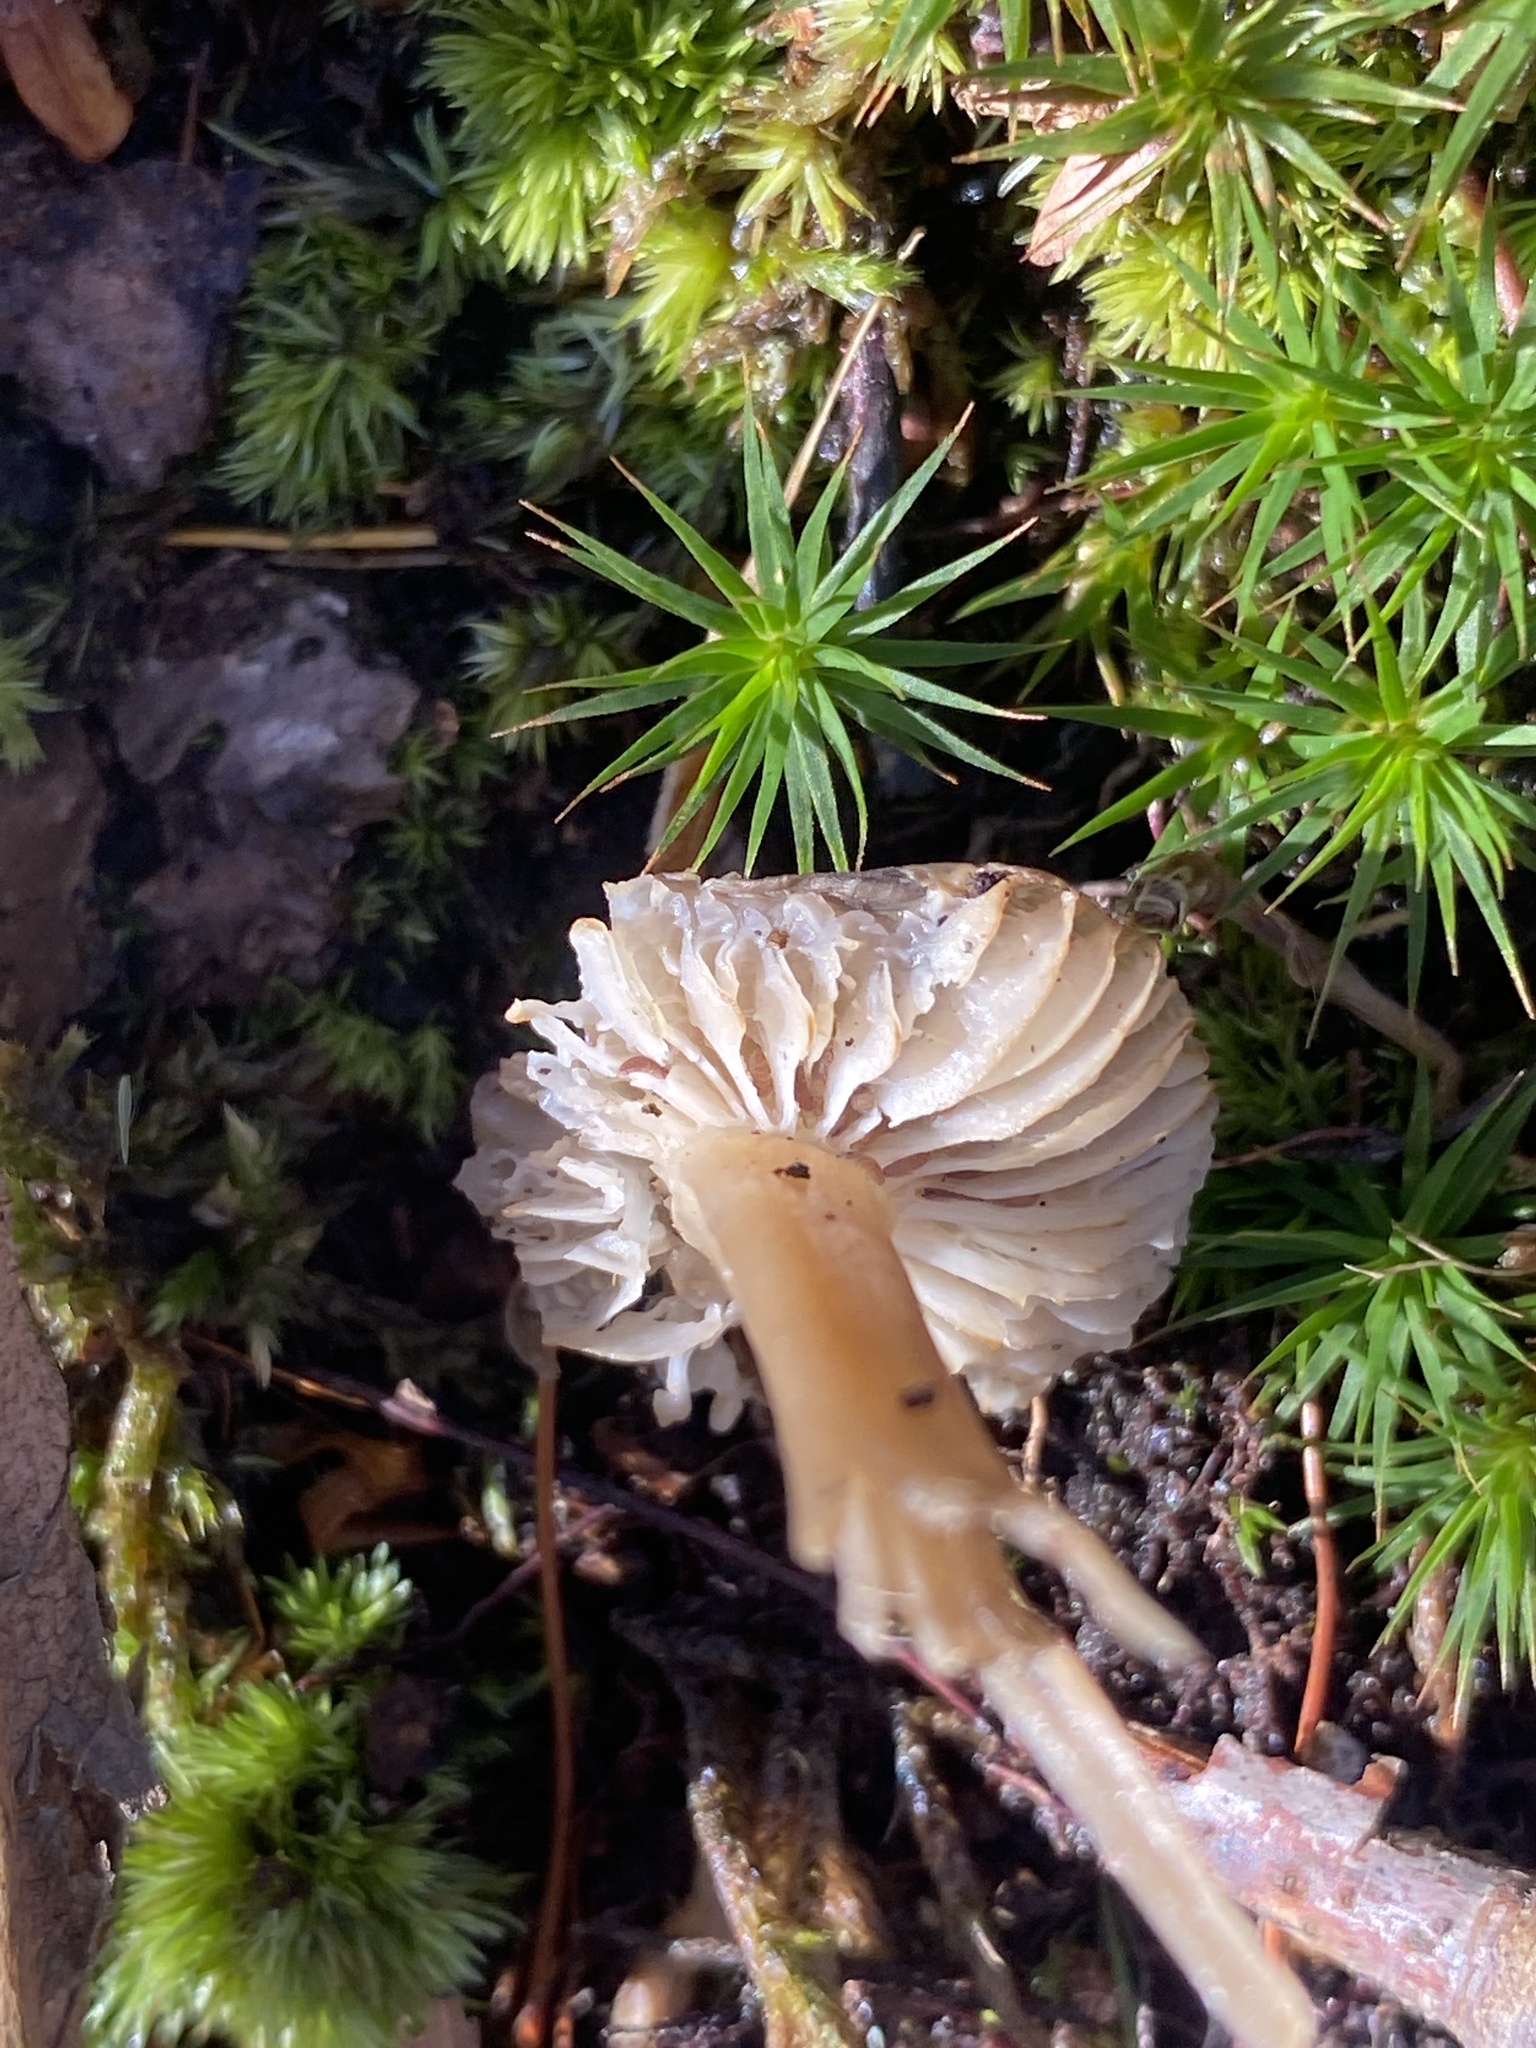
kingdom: Fungi
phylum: Basidiomycota
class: Agaricomycetes
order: Agaricales
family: Omphalotaceae
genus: Rhodocollybia
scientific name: Rhodocollybia butyracea
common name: Butter cap
